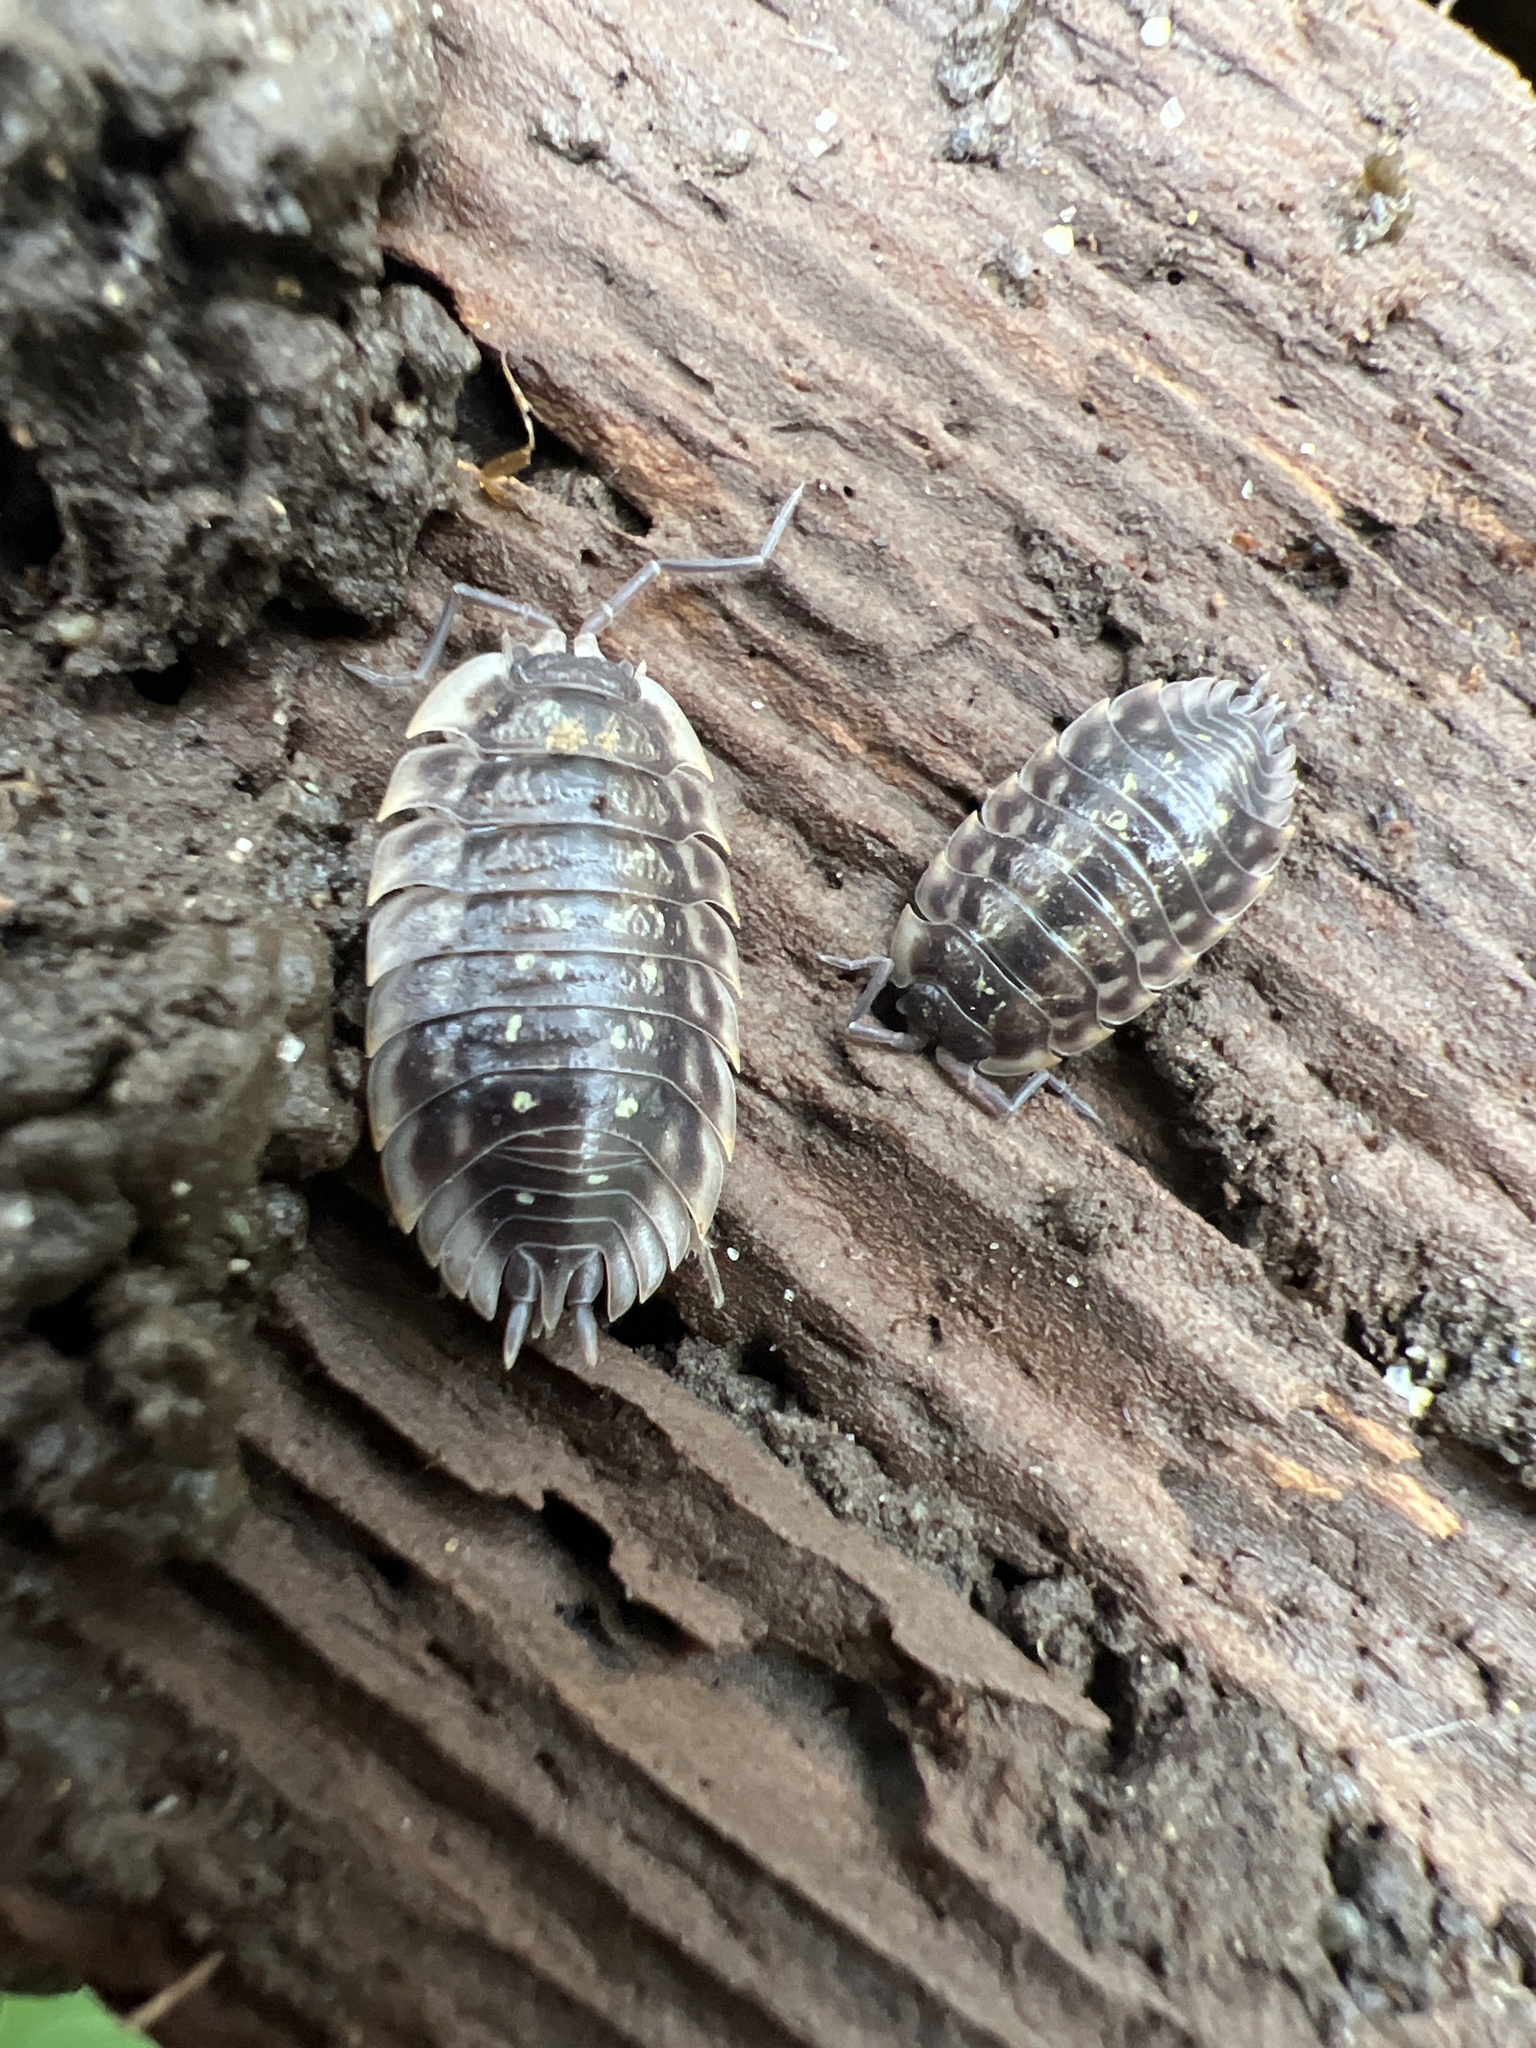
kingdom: Animalia
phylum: Arthropoda
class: Malacostraca
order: Isopoda
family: Oniscidae
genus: Oniscus
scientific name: Oniscus asellus
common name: Common shiny woodlouse
